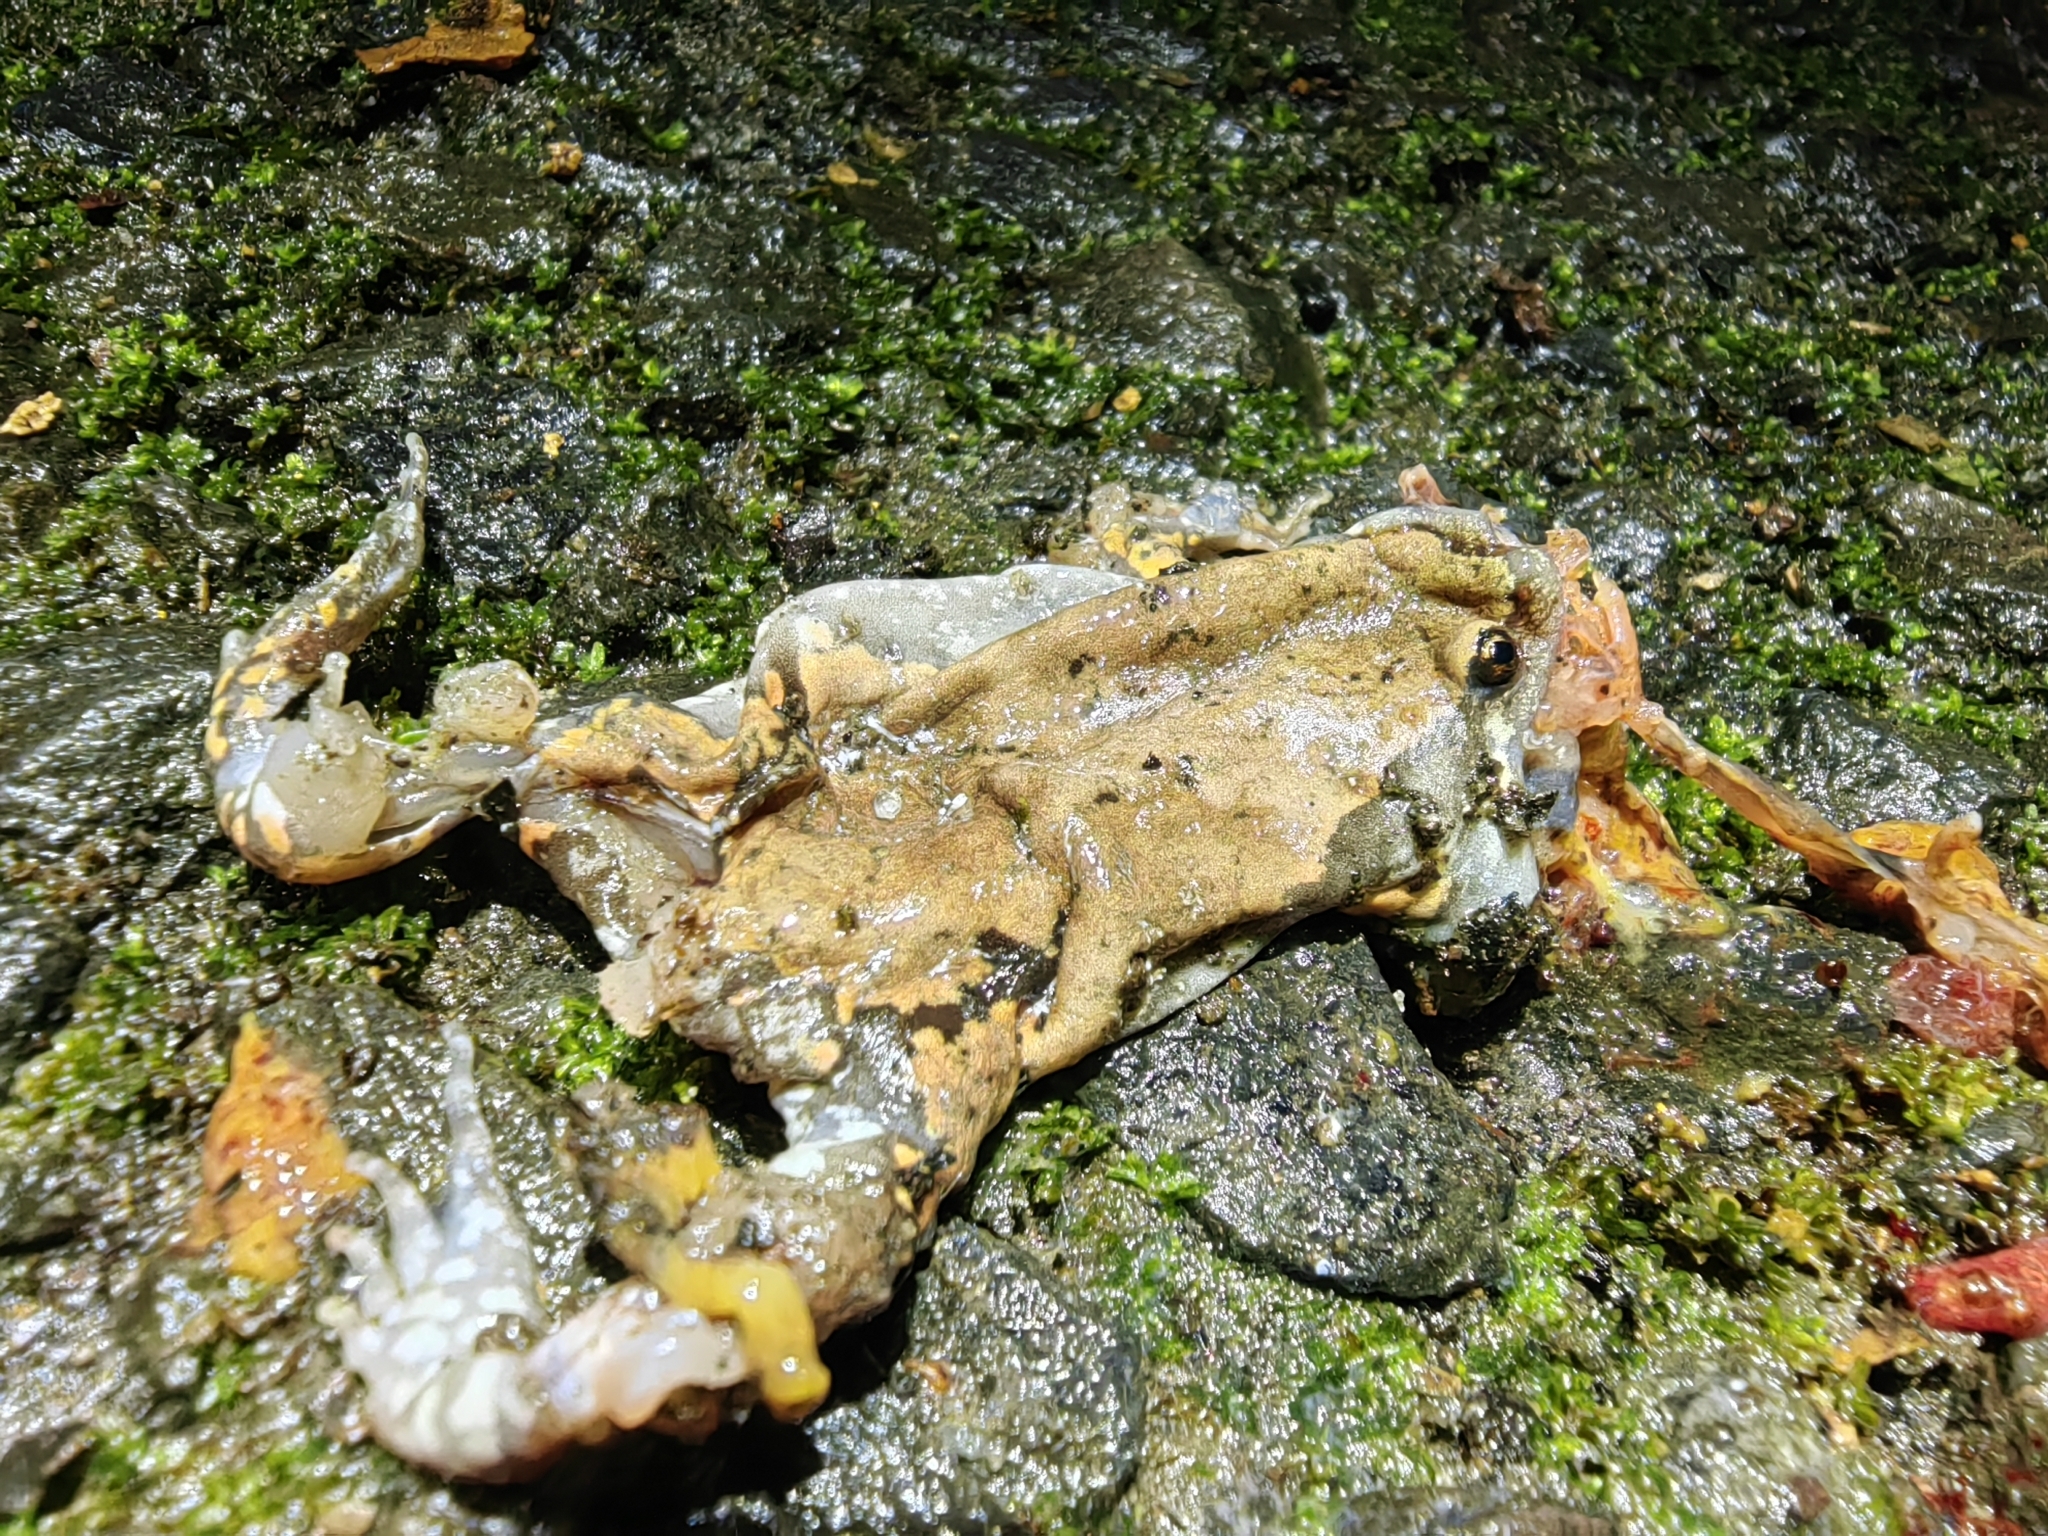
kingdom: Animalia
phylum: Chordata
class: Amphibia
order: Anura
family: Microhylidae
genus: Hypopachus
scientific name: Hypopachus variolosus
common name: Sheep frog
